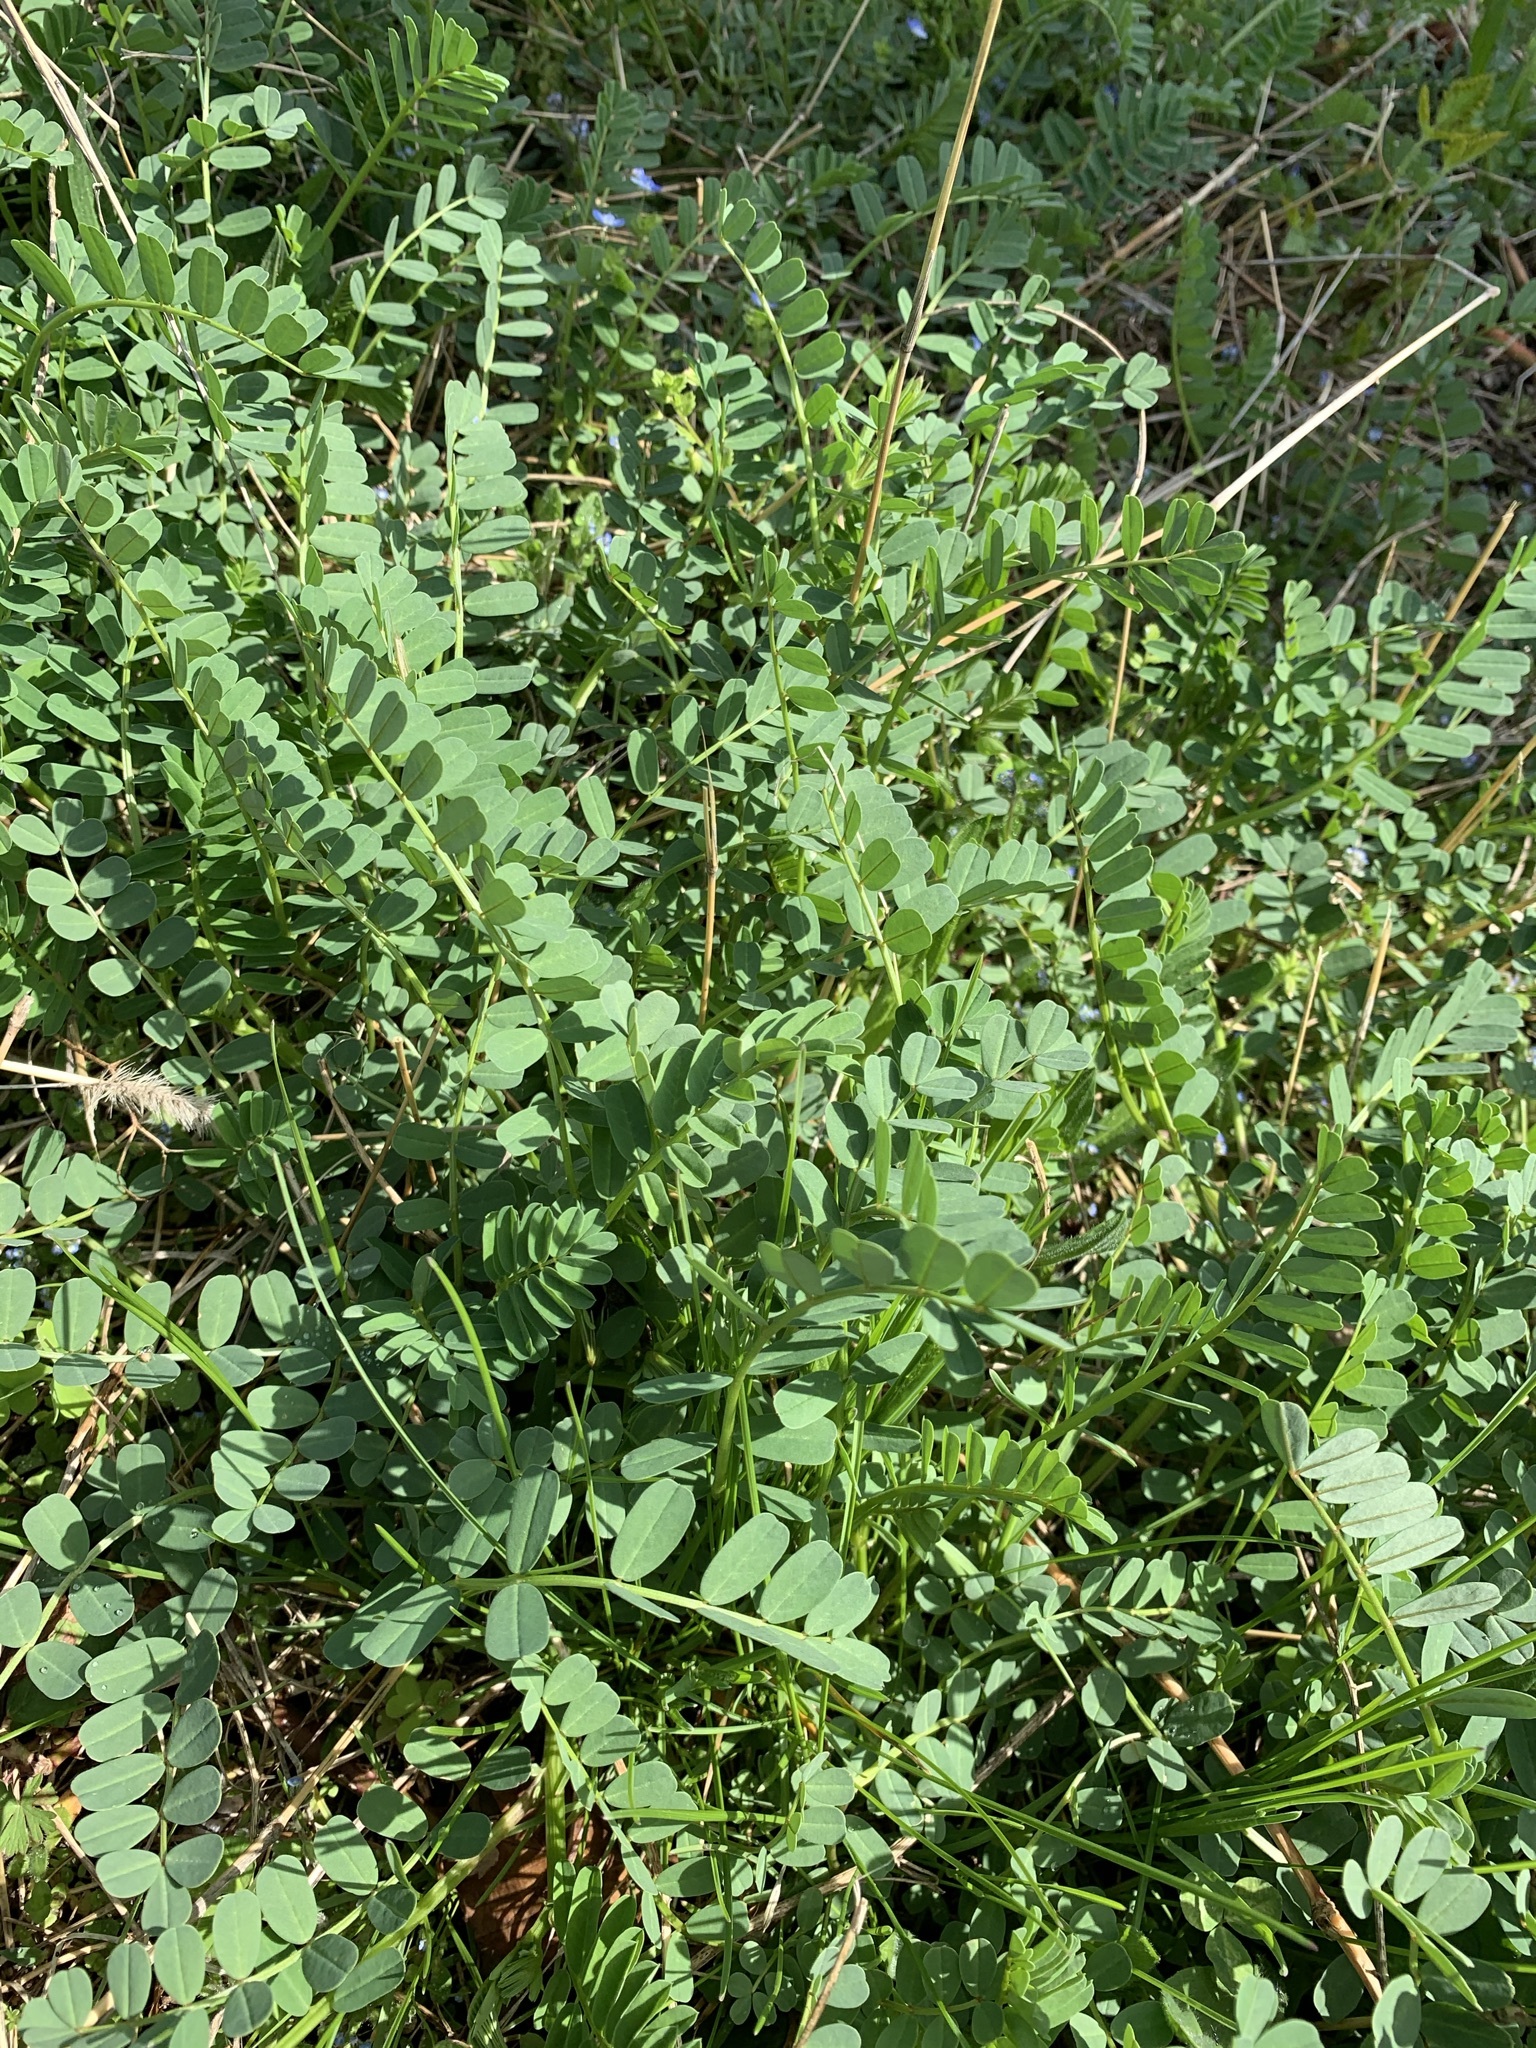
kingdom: Plantae
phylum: Tracheophyta
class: Magnoliopsida
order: Fabales
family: Fabaceae
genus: Coronilla
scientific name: Coronilla varia
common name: Crownvetch
